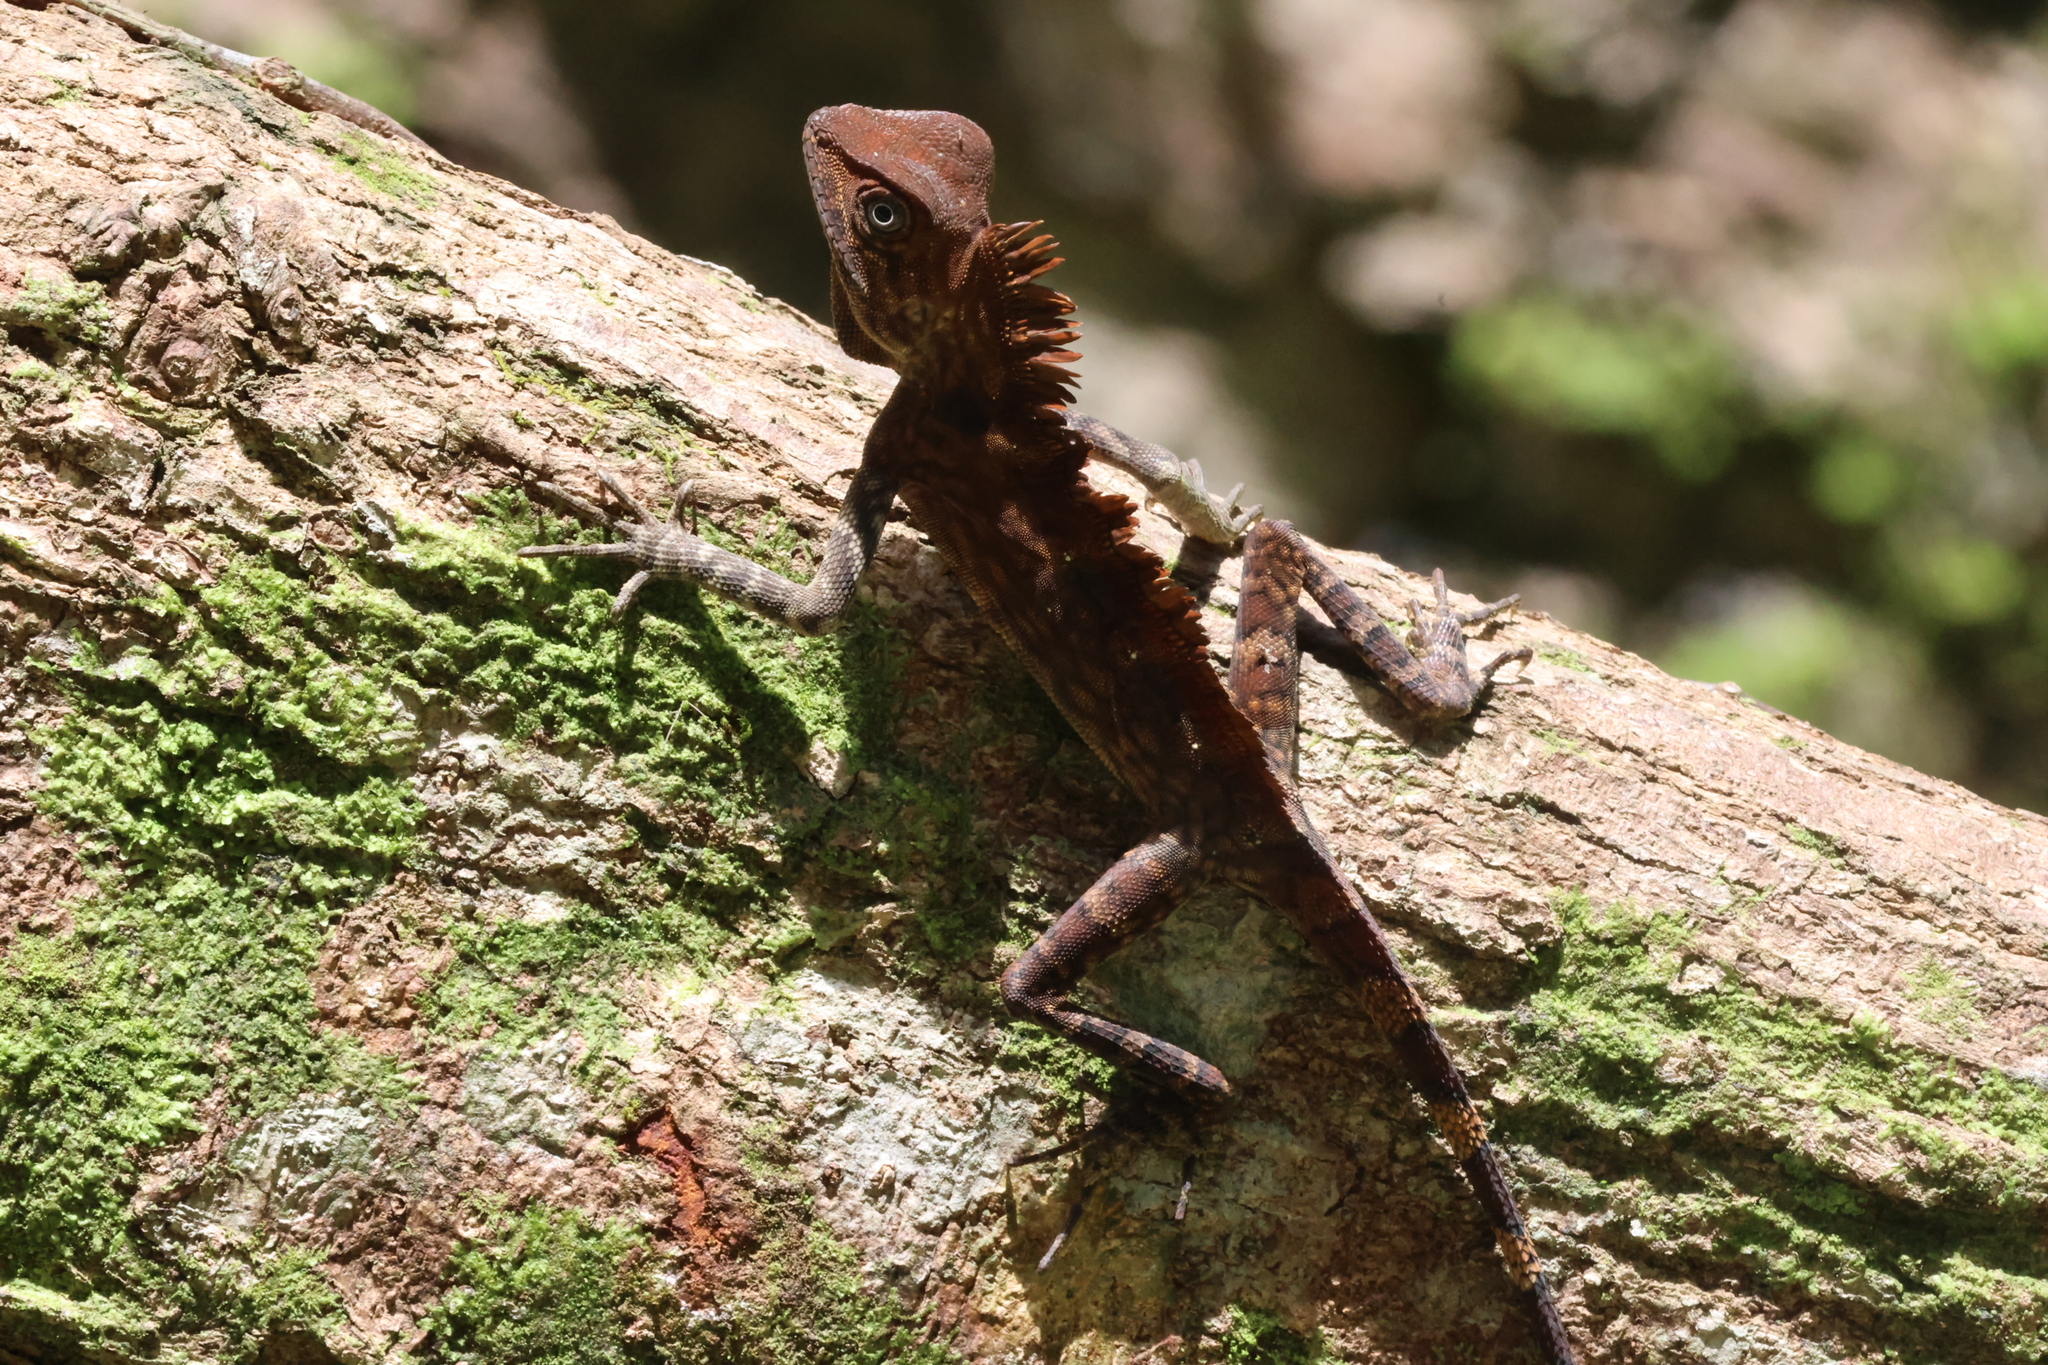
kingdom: Animalia
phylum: Chordata
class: Squamata
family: Agamidae
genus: Gonocephalus
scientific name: Gonocephalus bornensis
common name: Borneo forest dragon
